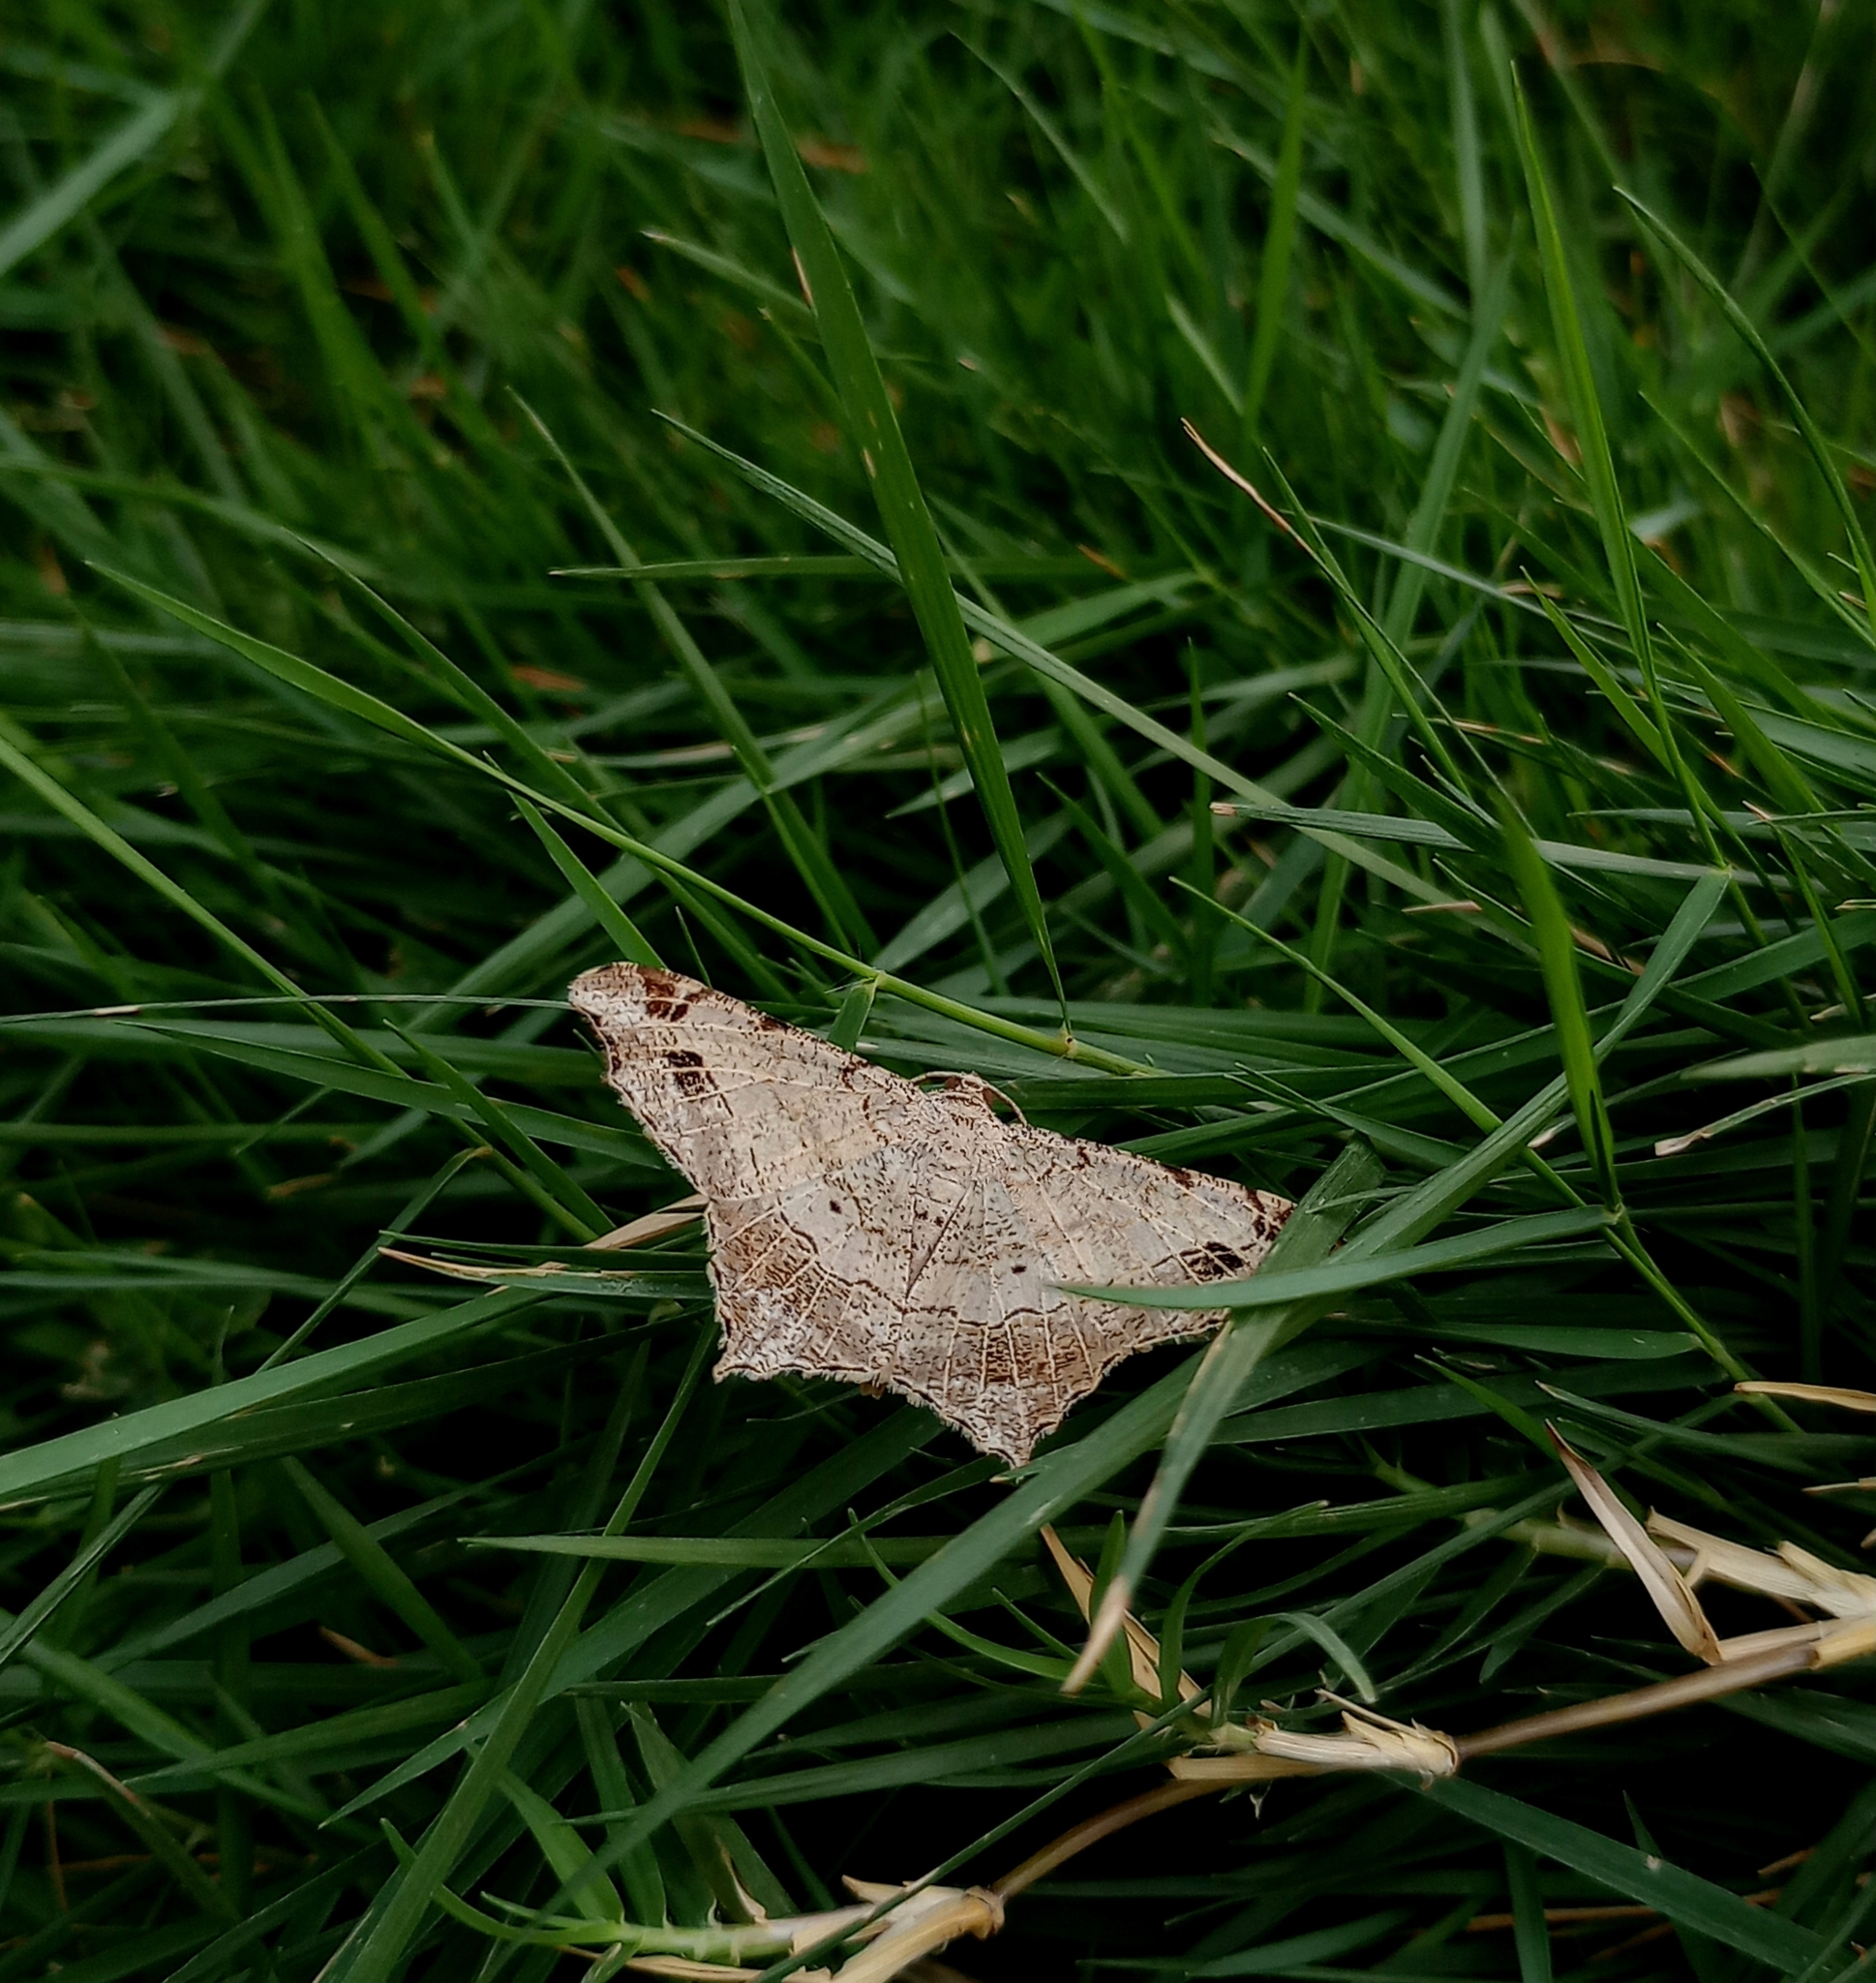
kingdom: Animalia
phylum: Arthropoda
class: Insecta
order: Lepidoptera
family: Geometridae
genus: Chiasmia
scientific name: Chiasmia emersaria
